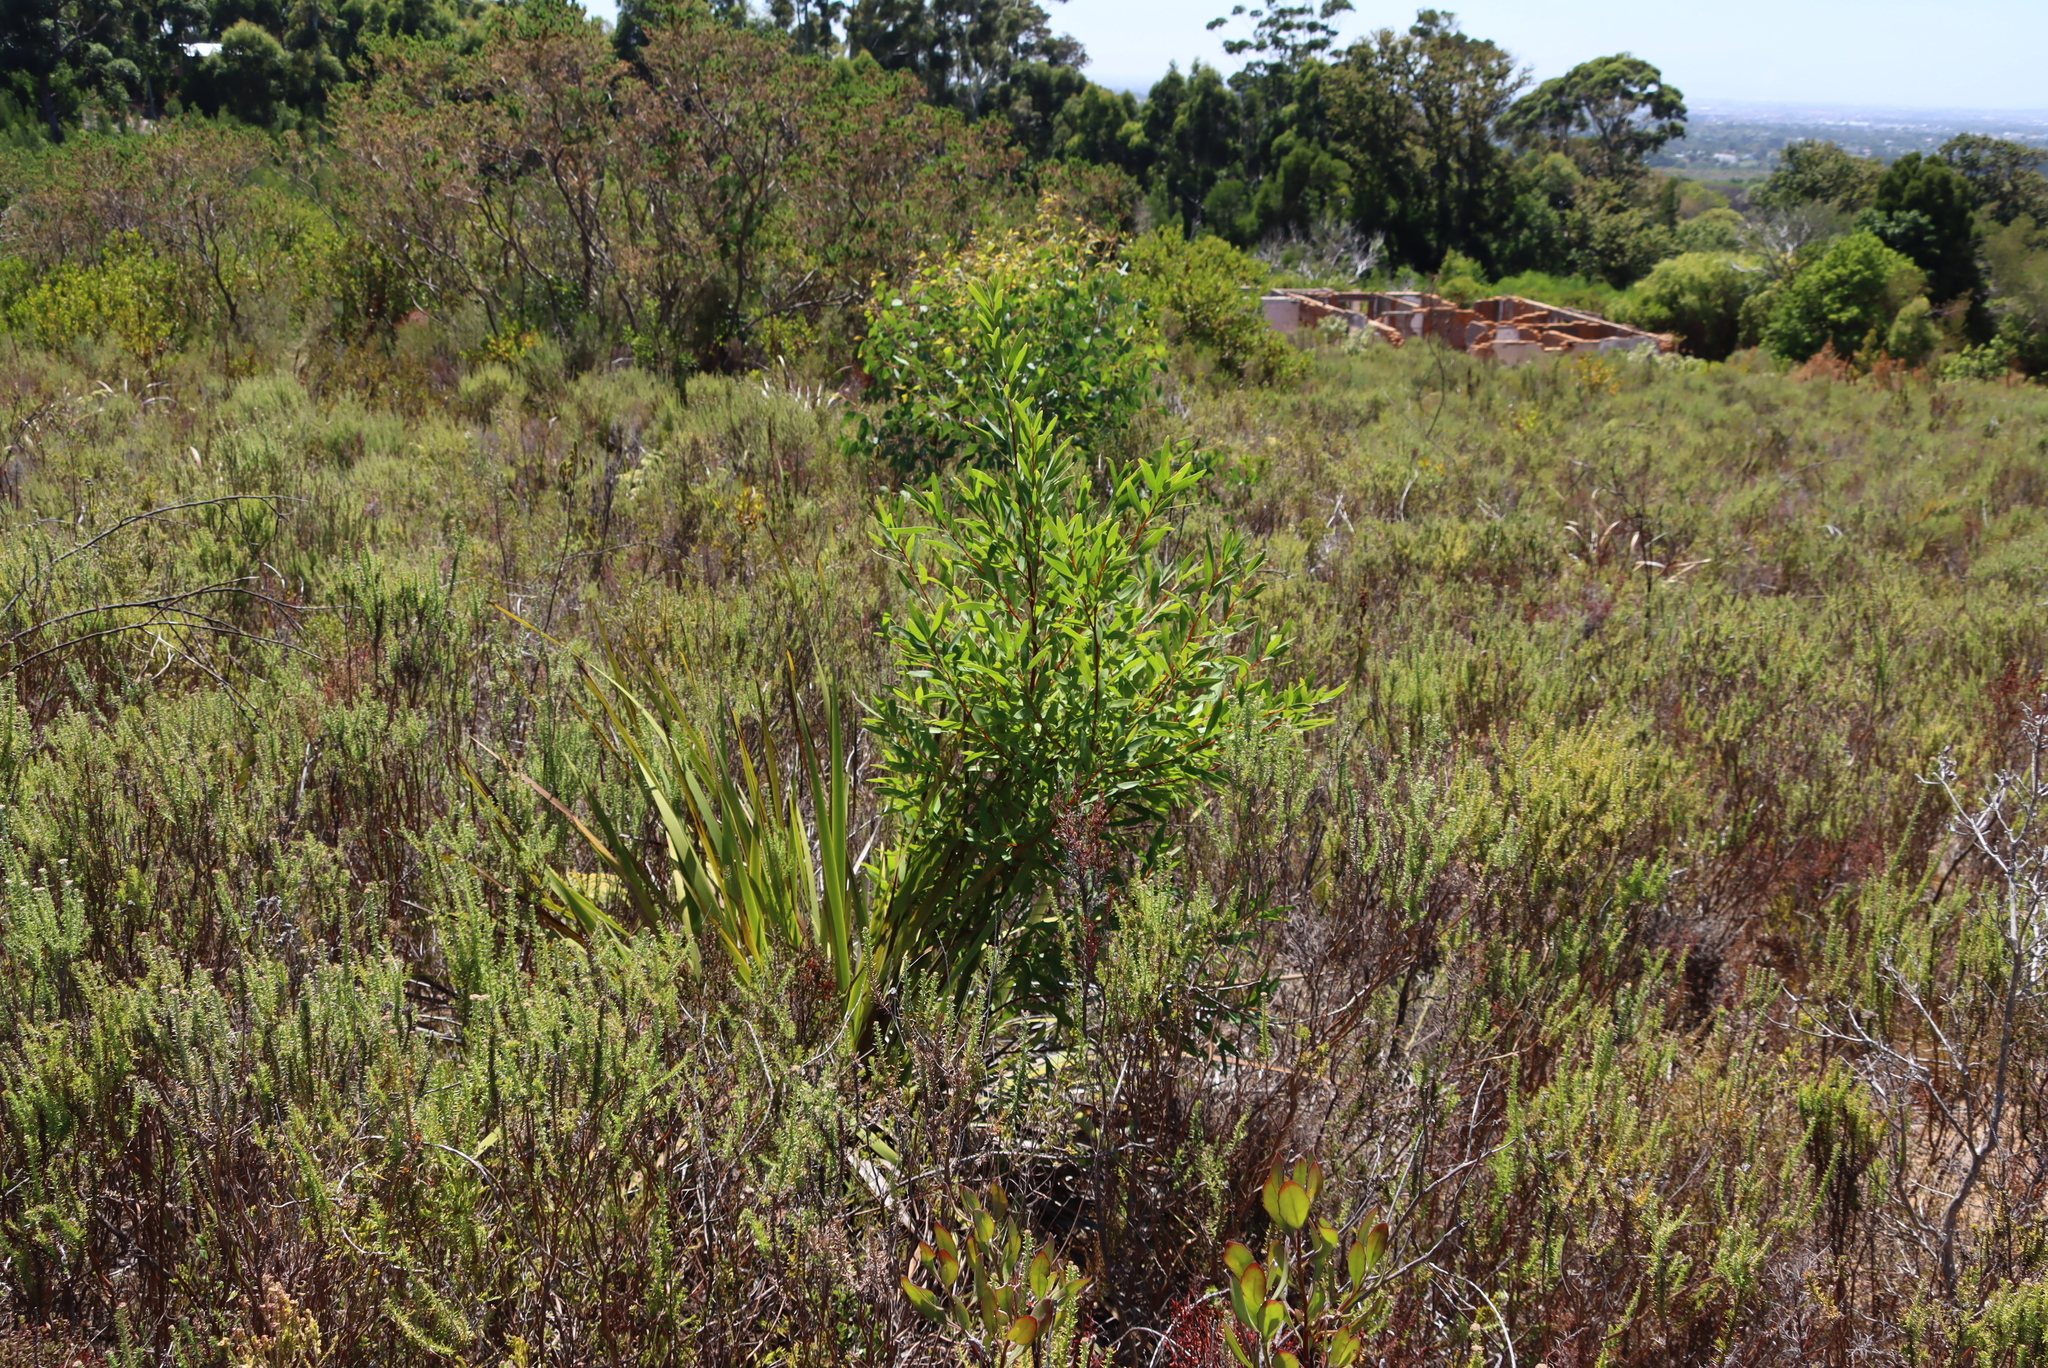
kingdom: Plantae
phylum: Tracheophyta
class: Magnoliopsida
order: Proteales
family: Proteaceae
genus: Hakea
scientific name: Hakea salicifolia
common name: Willow hakea
